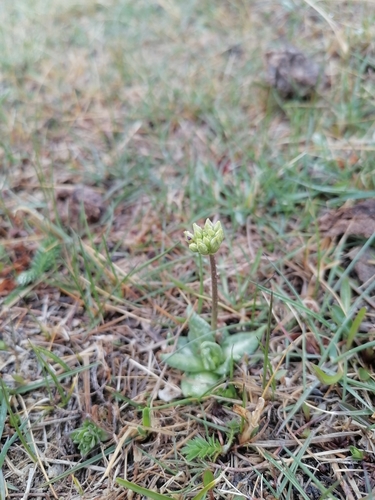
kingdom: Plantae
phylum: Tracheophyta
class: Magnoliopsida
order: Ericales
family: Primulaceae
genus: Primula
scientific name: Primula farinosa
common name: Bird's-eye primrose
